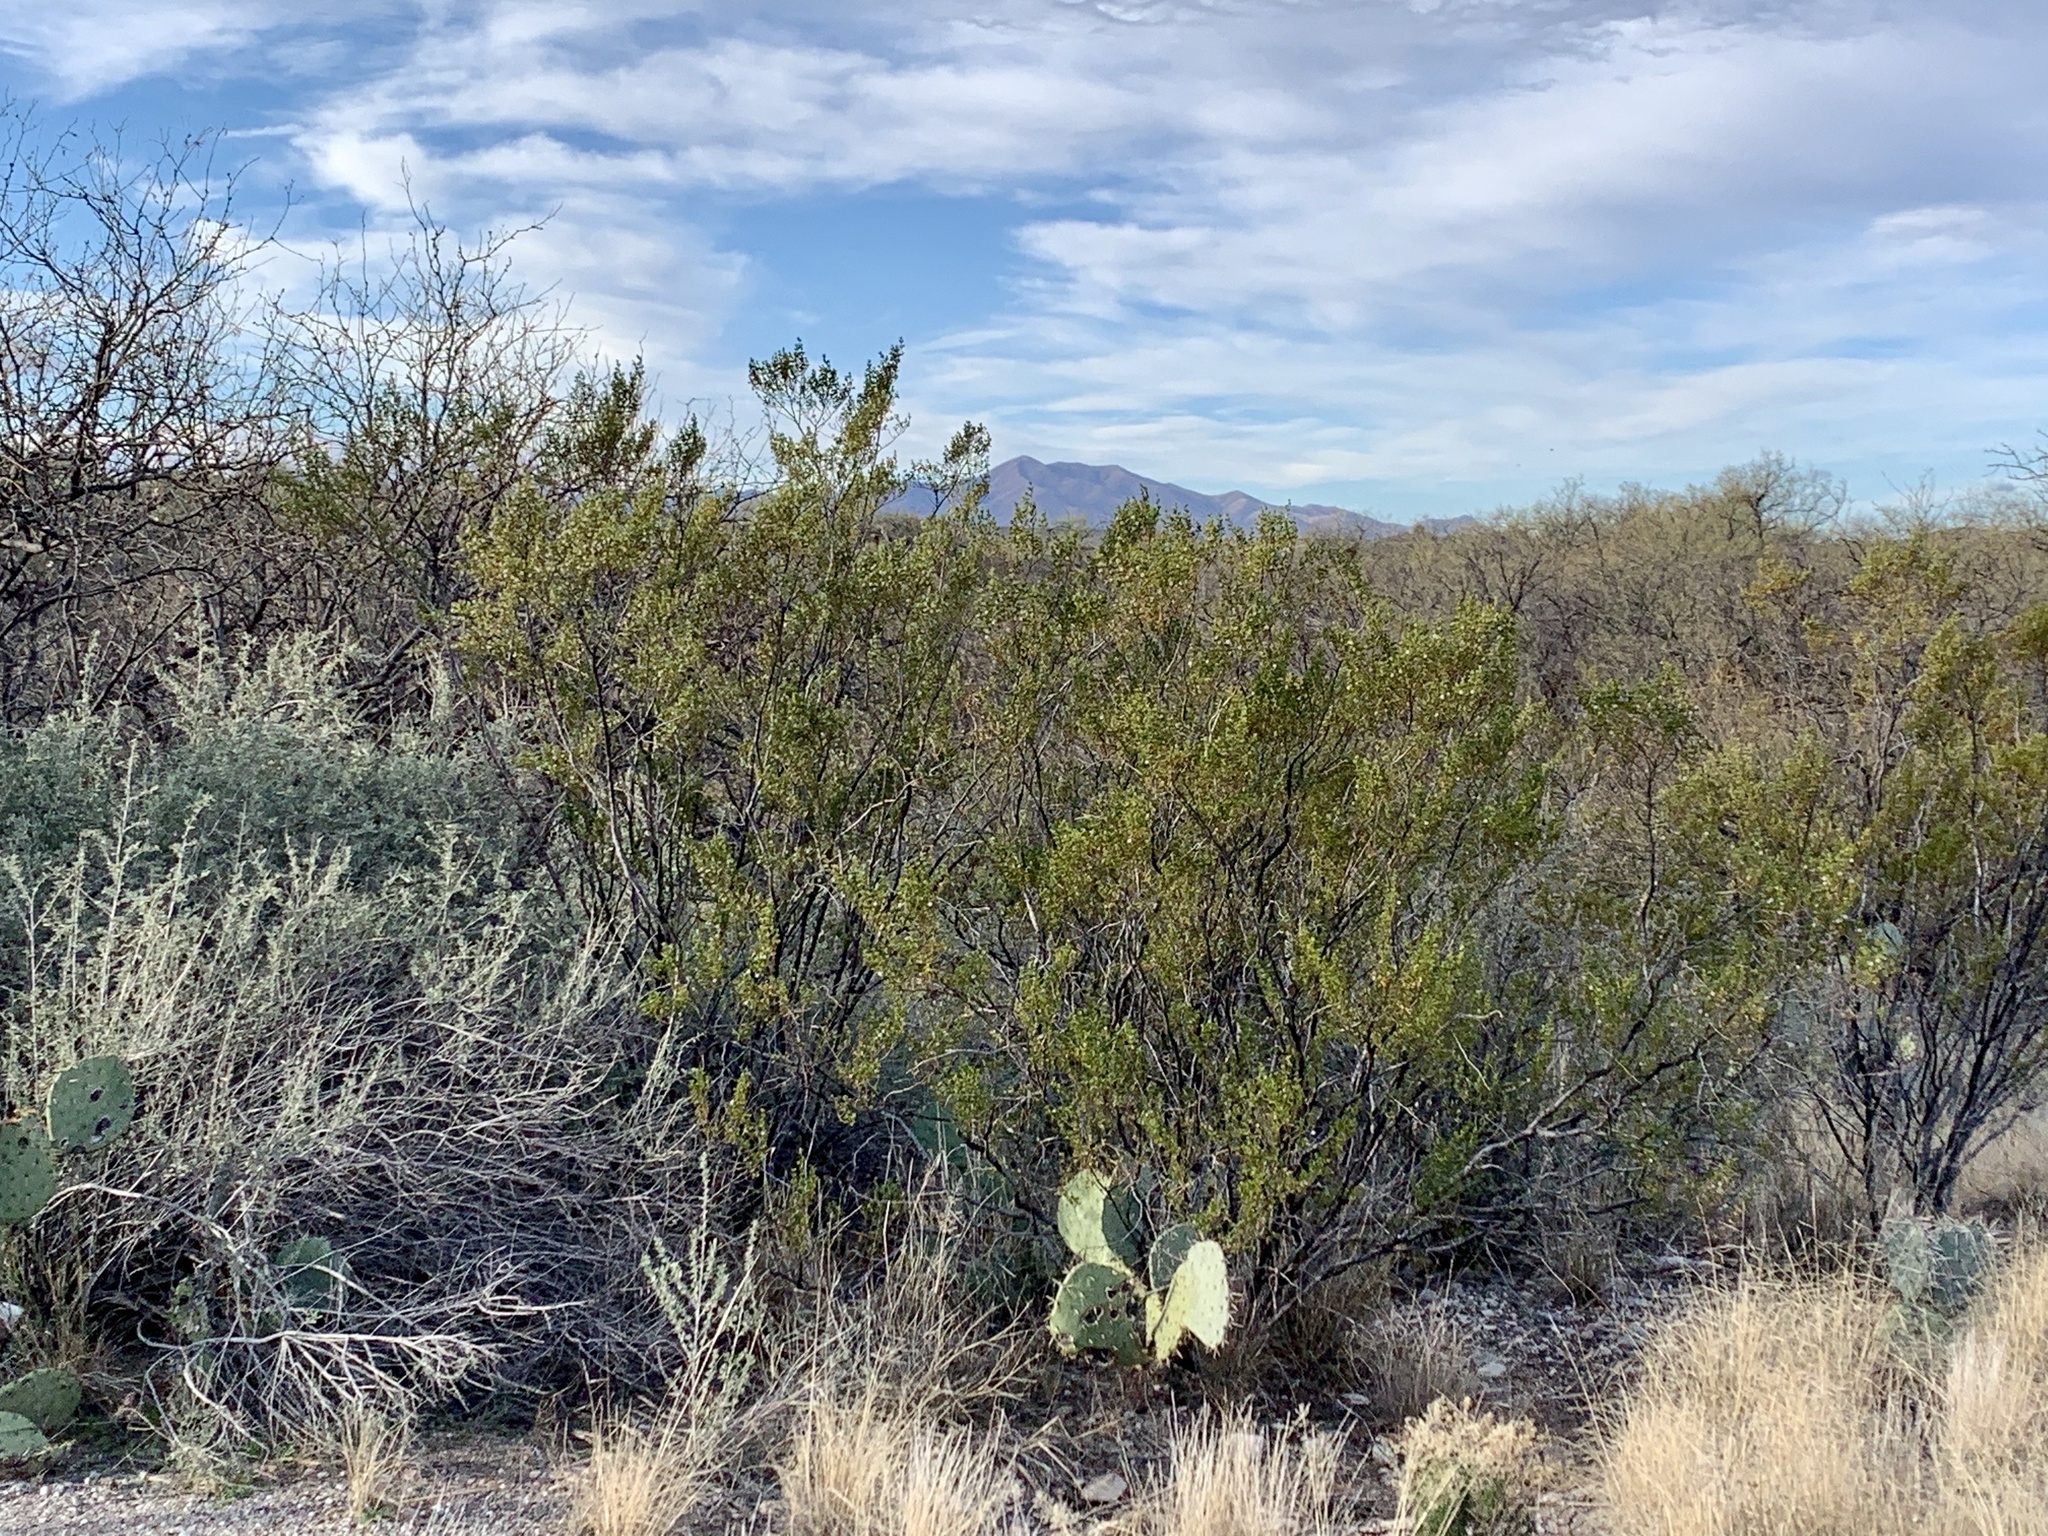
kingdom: Plantae
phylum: Tracheophyta
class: Magnoliopsida
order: Zygophyllales
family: Zygophyllaceae
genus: Larrea
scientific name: Larrea tridentata
